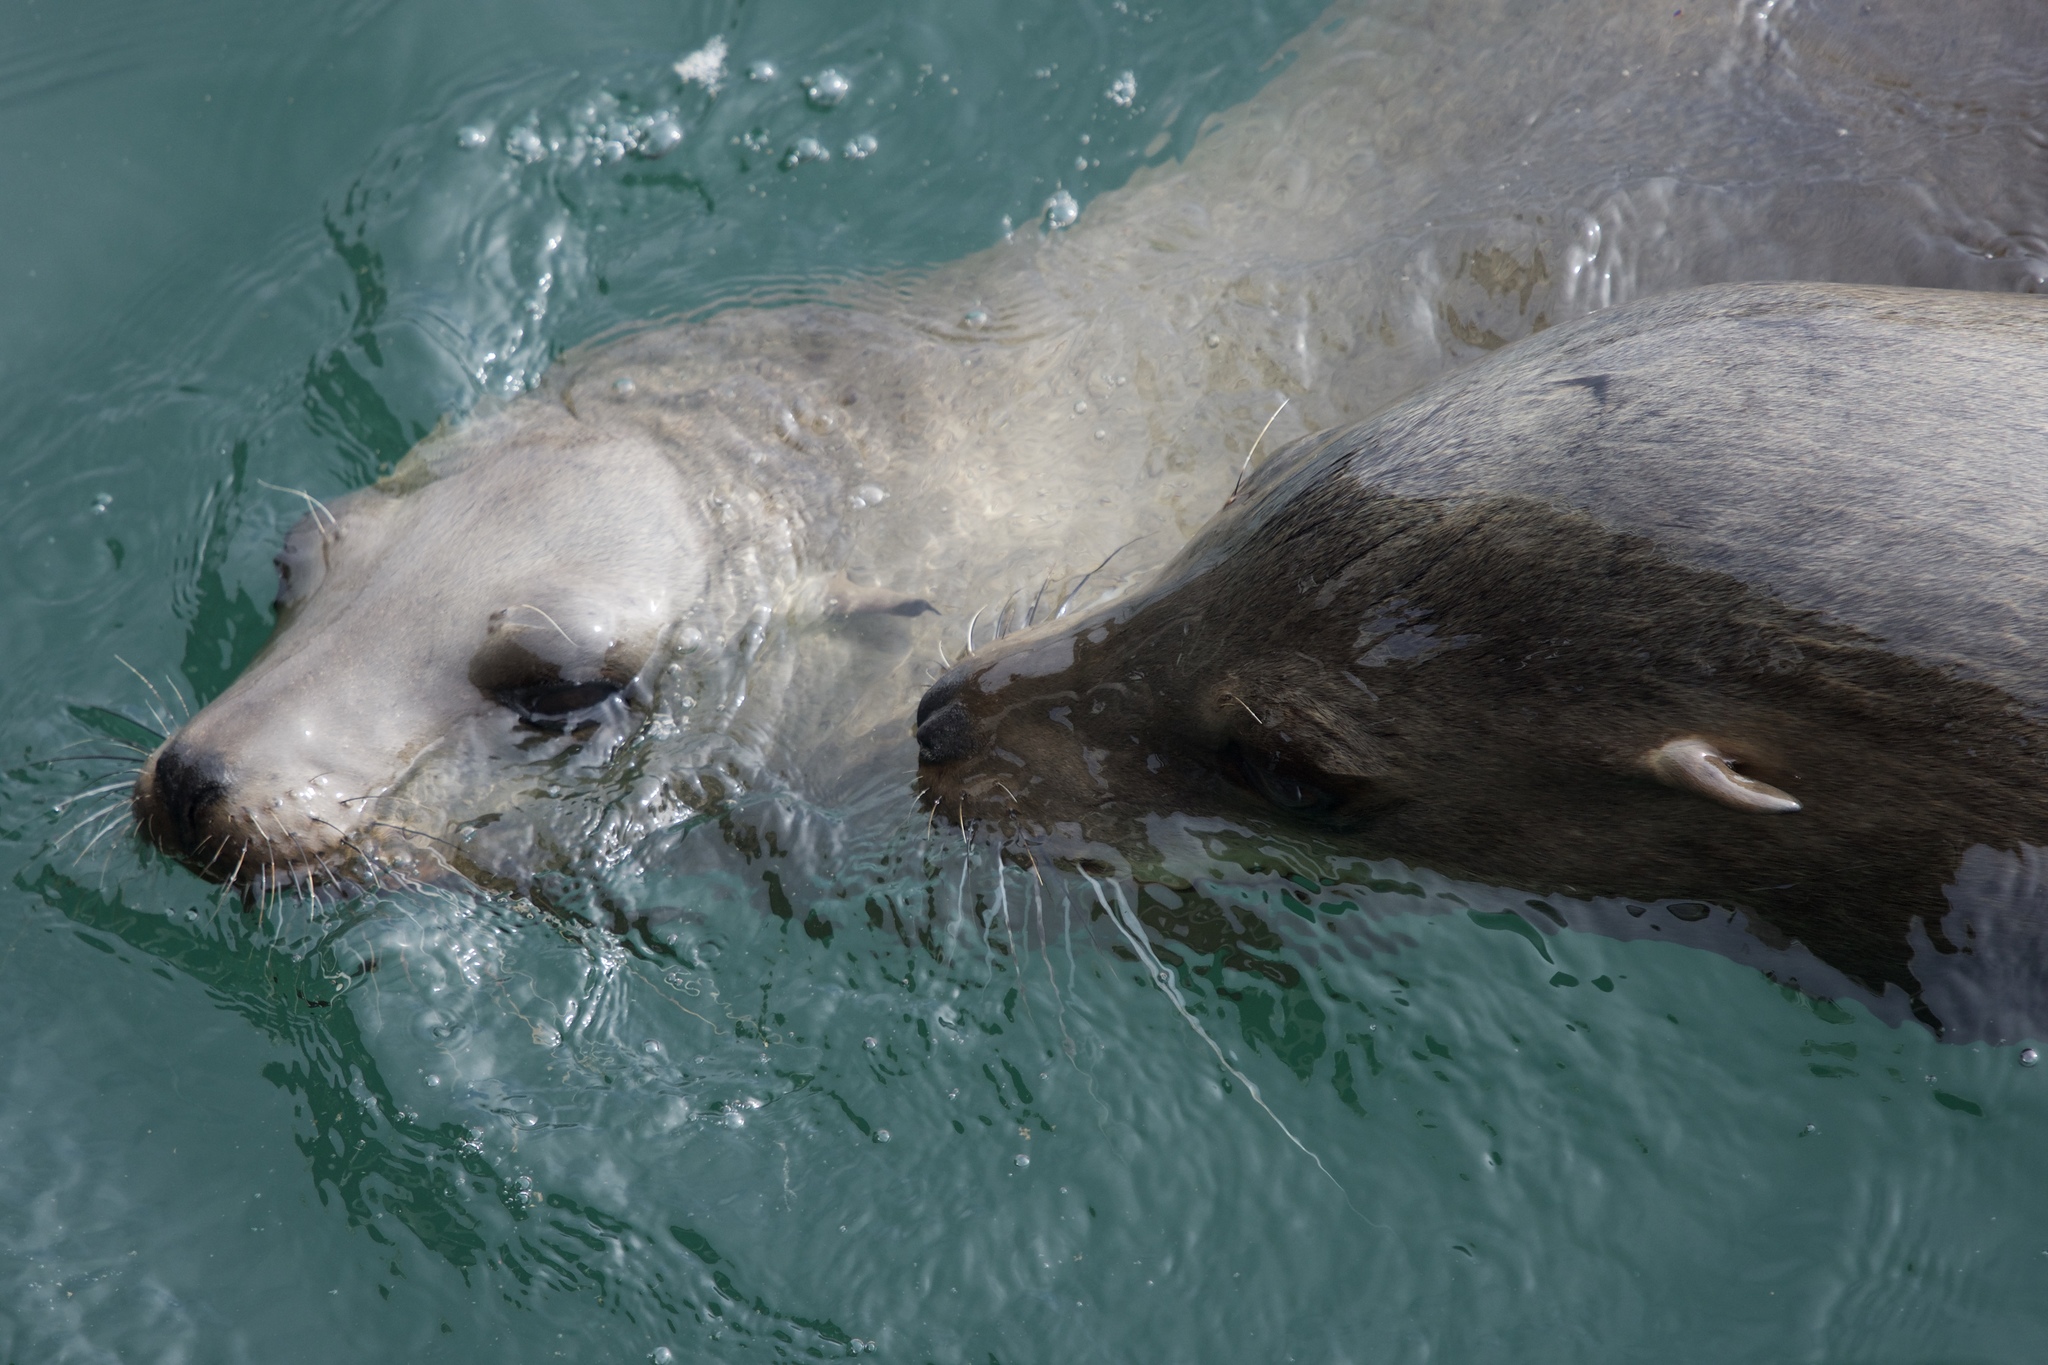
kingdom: Animalia
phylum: Chordata
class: Mammalia
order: Carnivora
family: Otariidae
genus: Zalophus
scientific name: Zalophus californianus
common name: California sea lion
